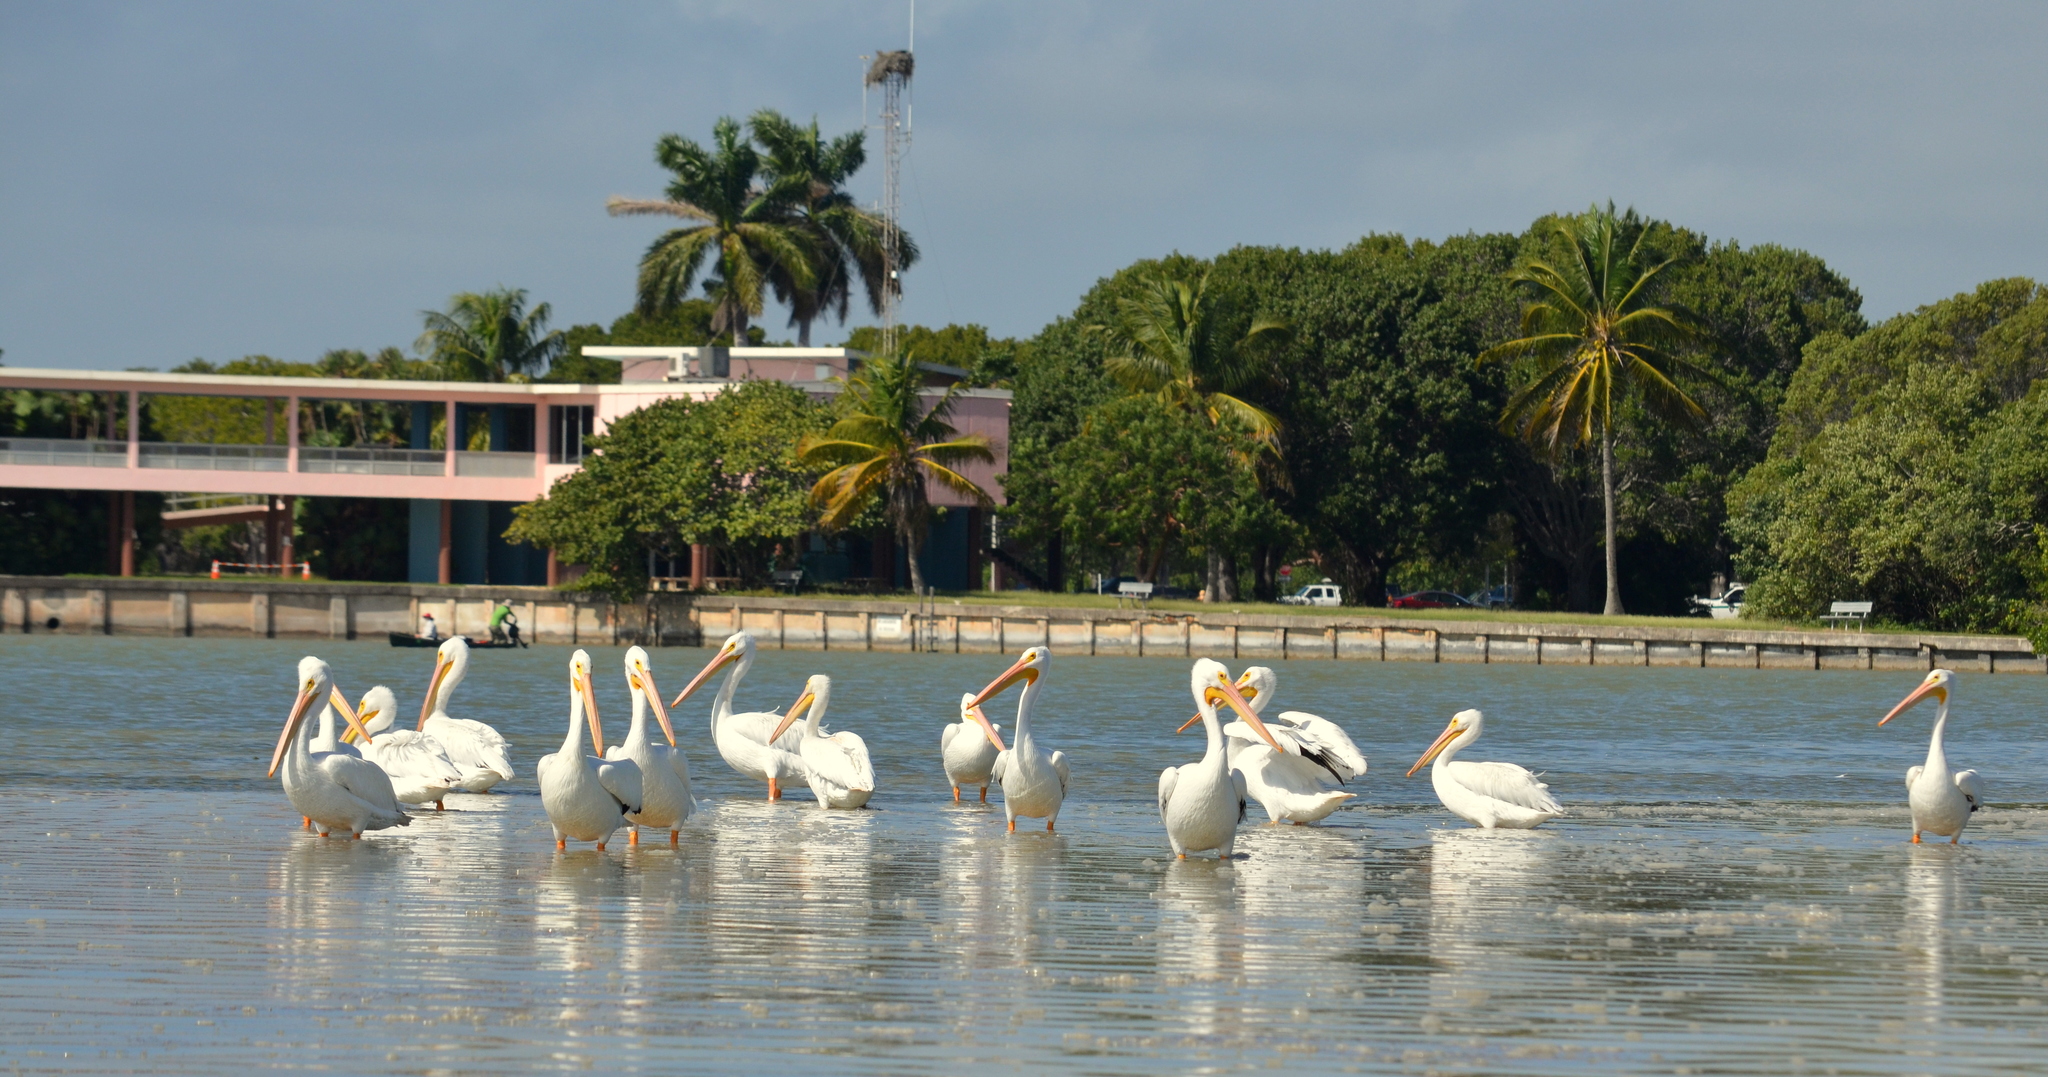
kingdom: Animalia
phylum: Chordata
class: Aves
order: Pelecaniformes
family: Pelecanidae
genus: Pelecanus
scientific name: Pelecanus erythrorhynchos
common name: American white pelican
